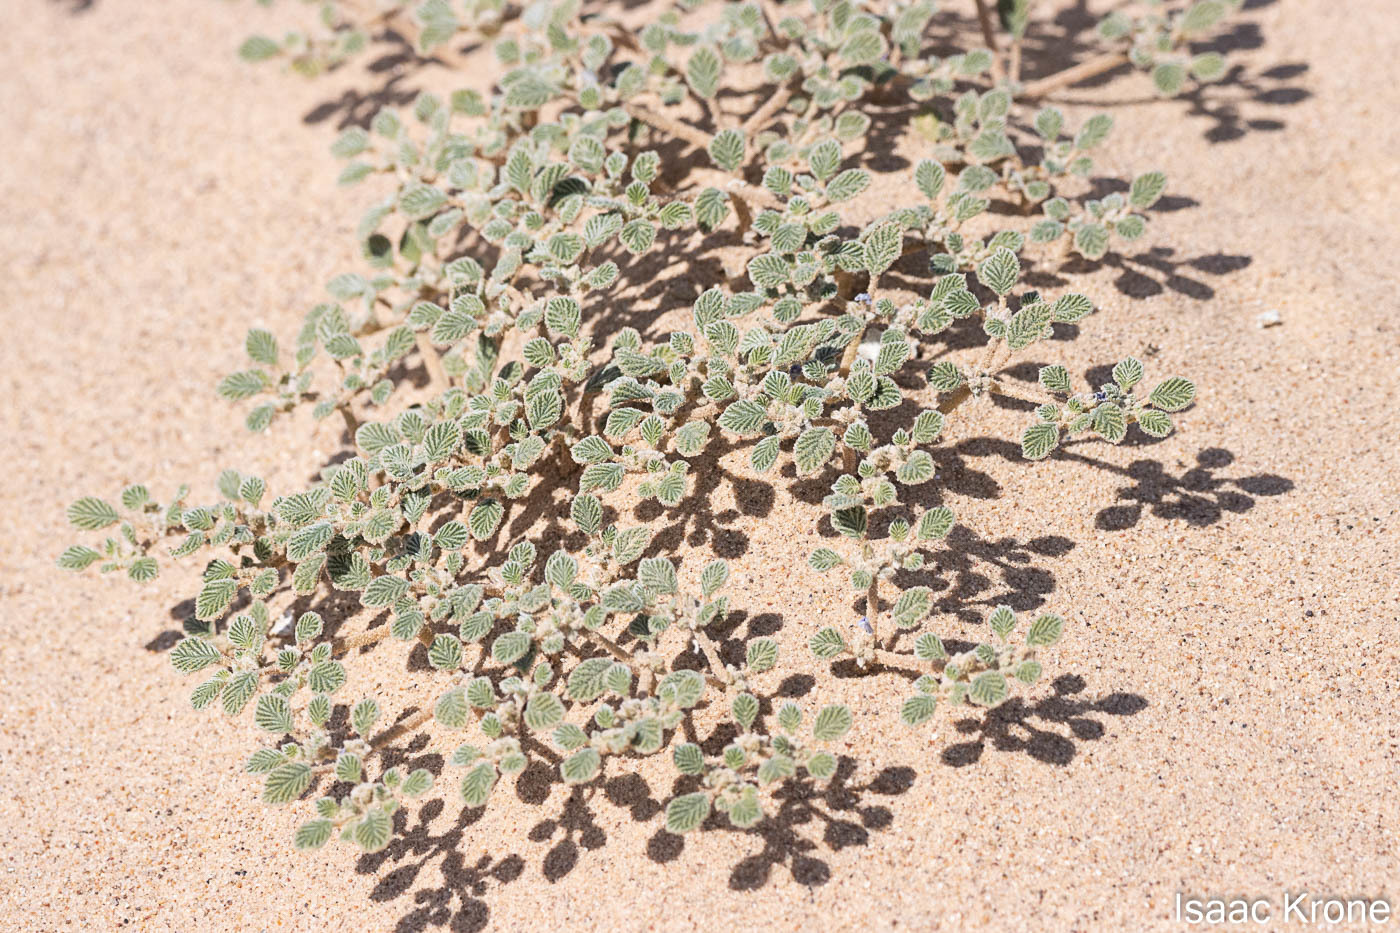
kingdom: Plantae
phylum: Tracheophyta
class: Magnoliopsida
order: Boraginales
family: Ehretiaceae
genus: Tiquilia
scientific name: Tiquilia plicata
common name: Fan-leaf tiquilia
